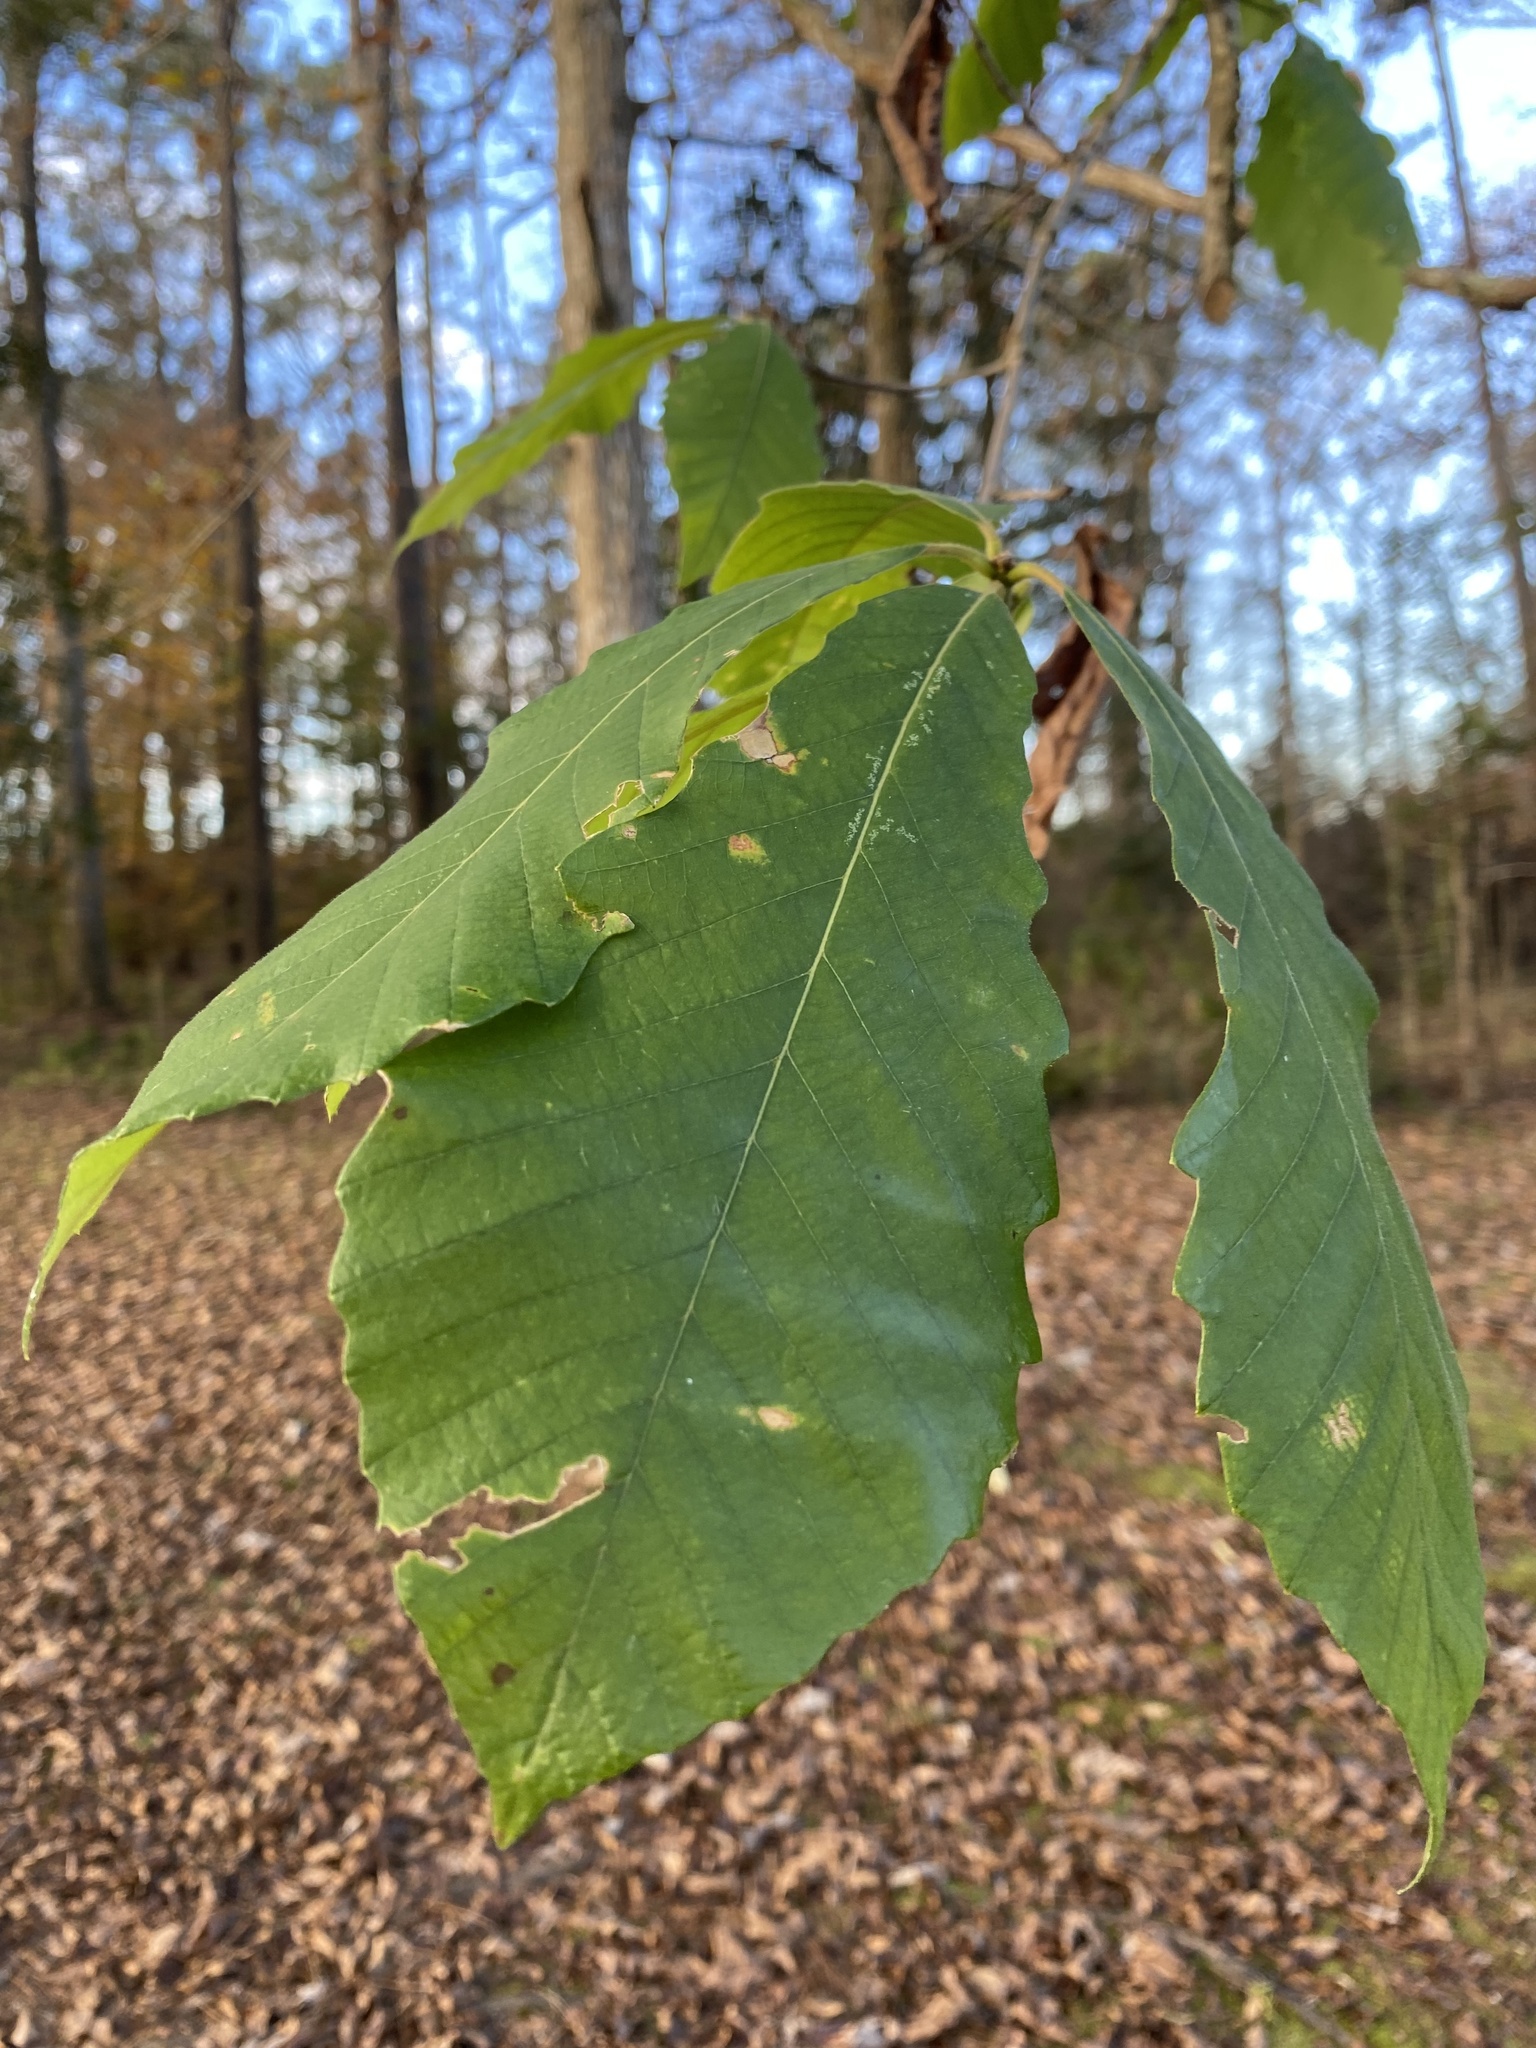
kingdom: Plantae
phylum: Tracheophyta
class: Magnoliopsida
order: Fagales
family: Fagaceae
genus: Quercus
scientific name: Quercus michauxii
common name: Swamp chestnut oak
